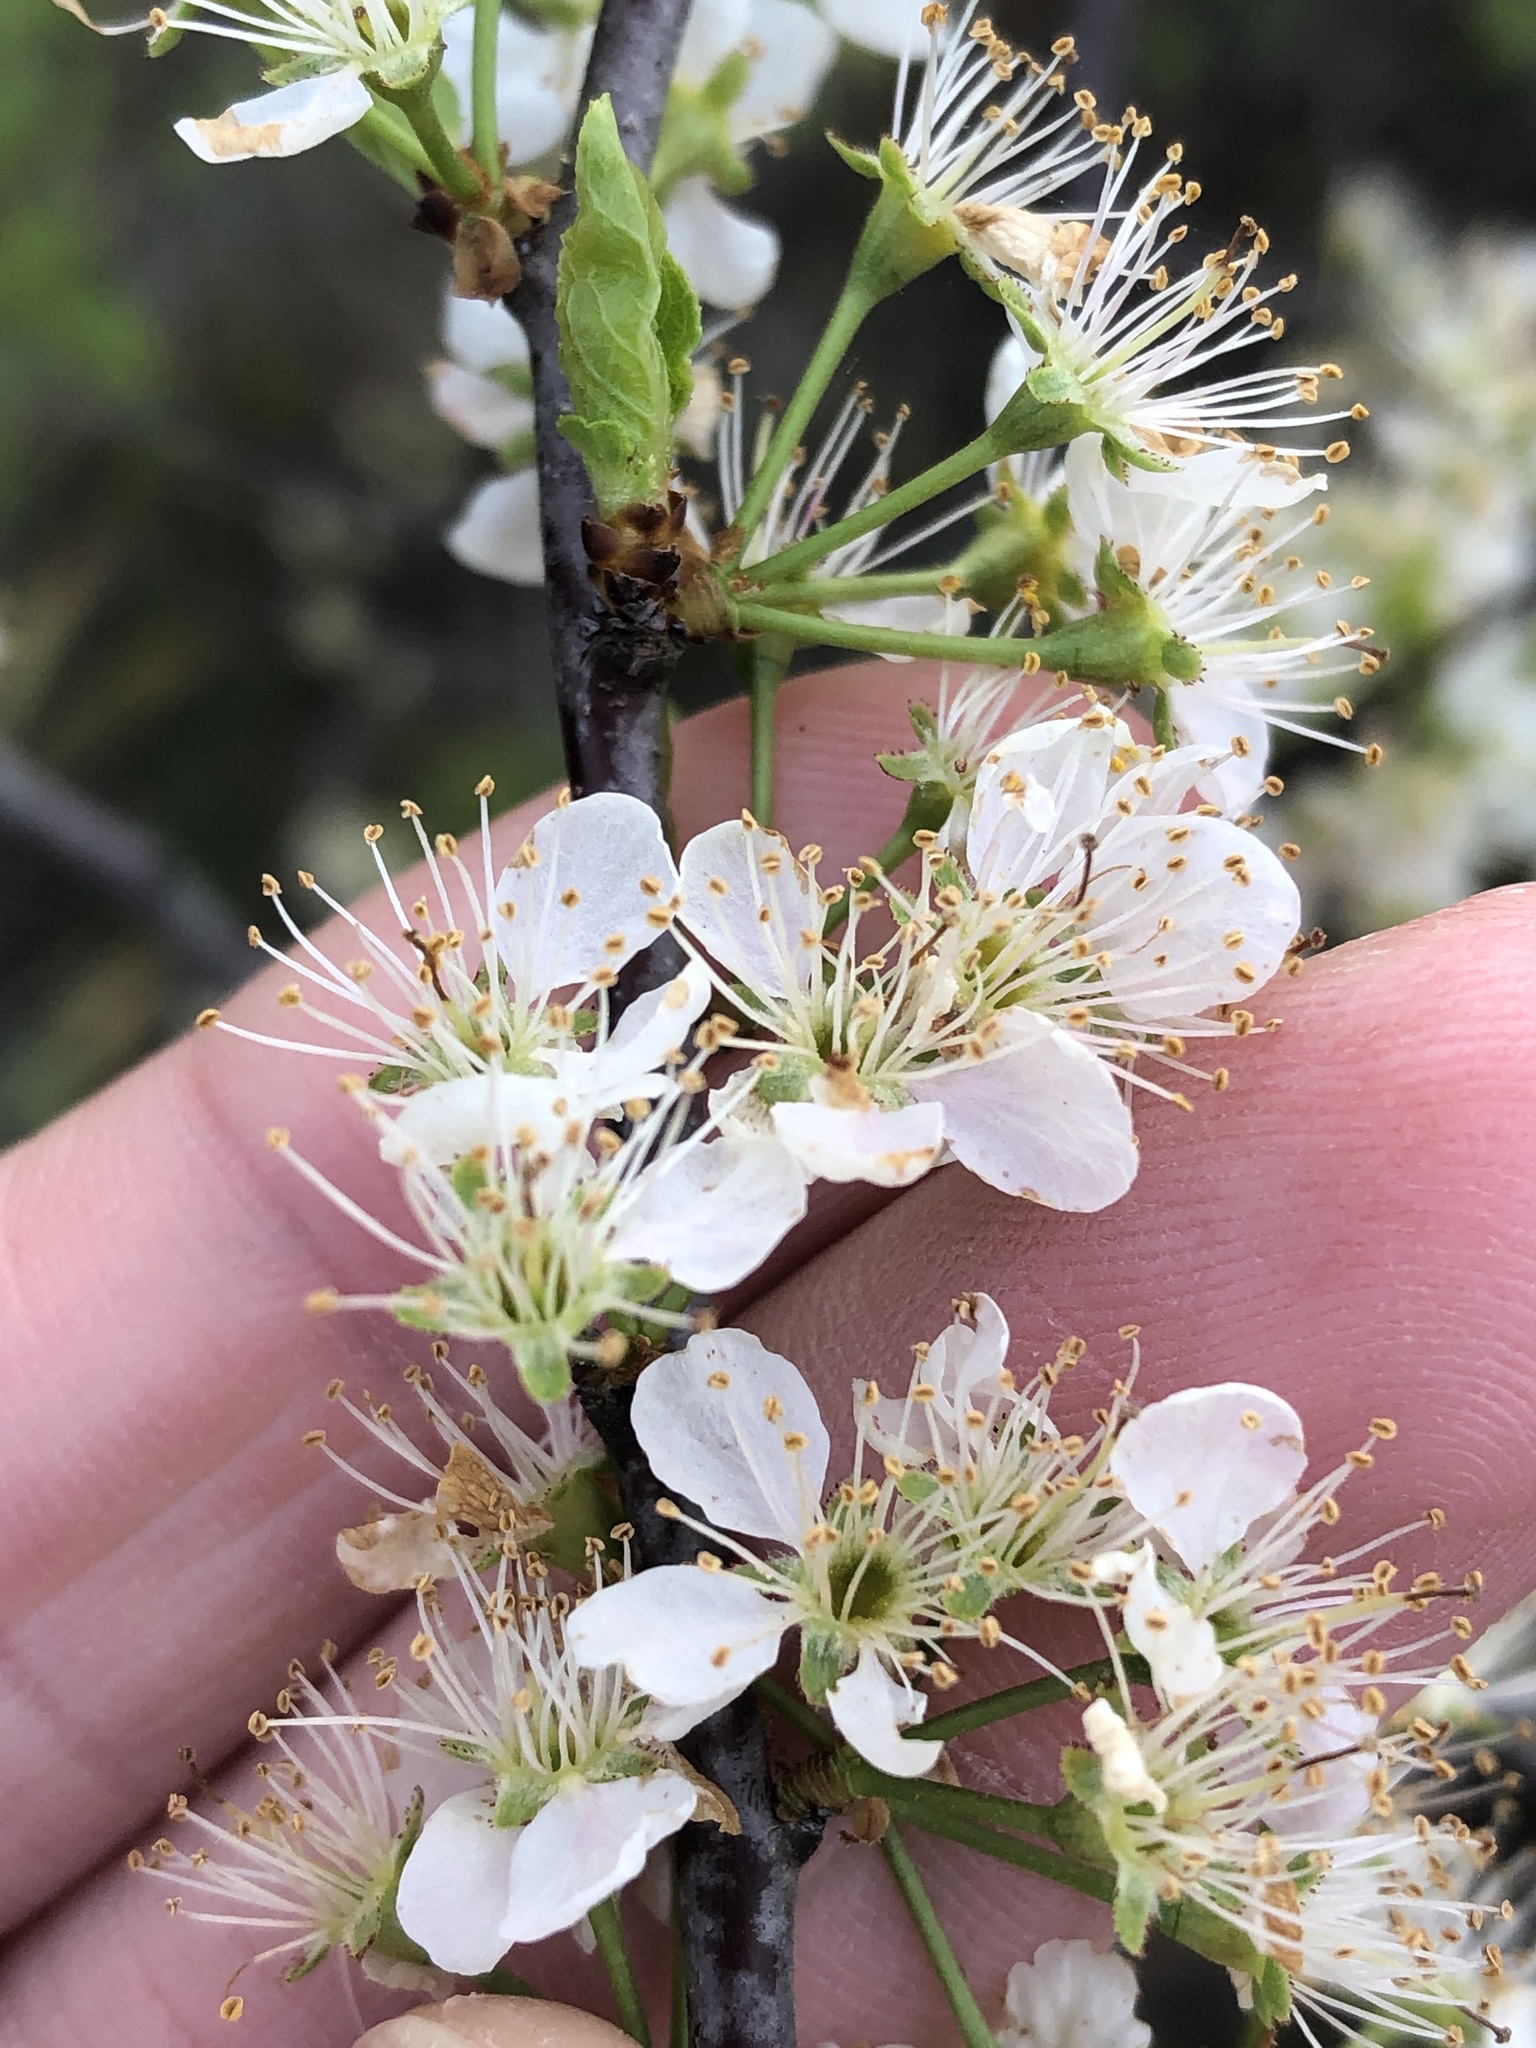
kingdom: Plantae
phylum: Tracheophyta
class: Magnoliopsida
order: Rosales
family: Rosaceae
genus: Prunus
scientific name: Prunus rivularis
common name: Creek plum
